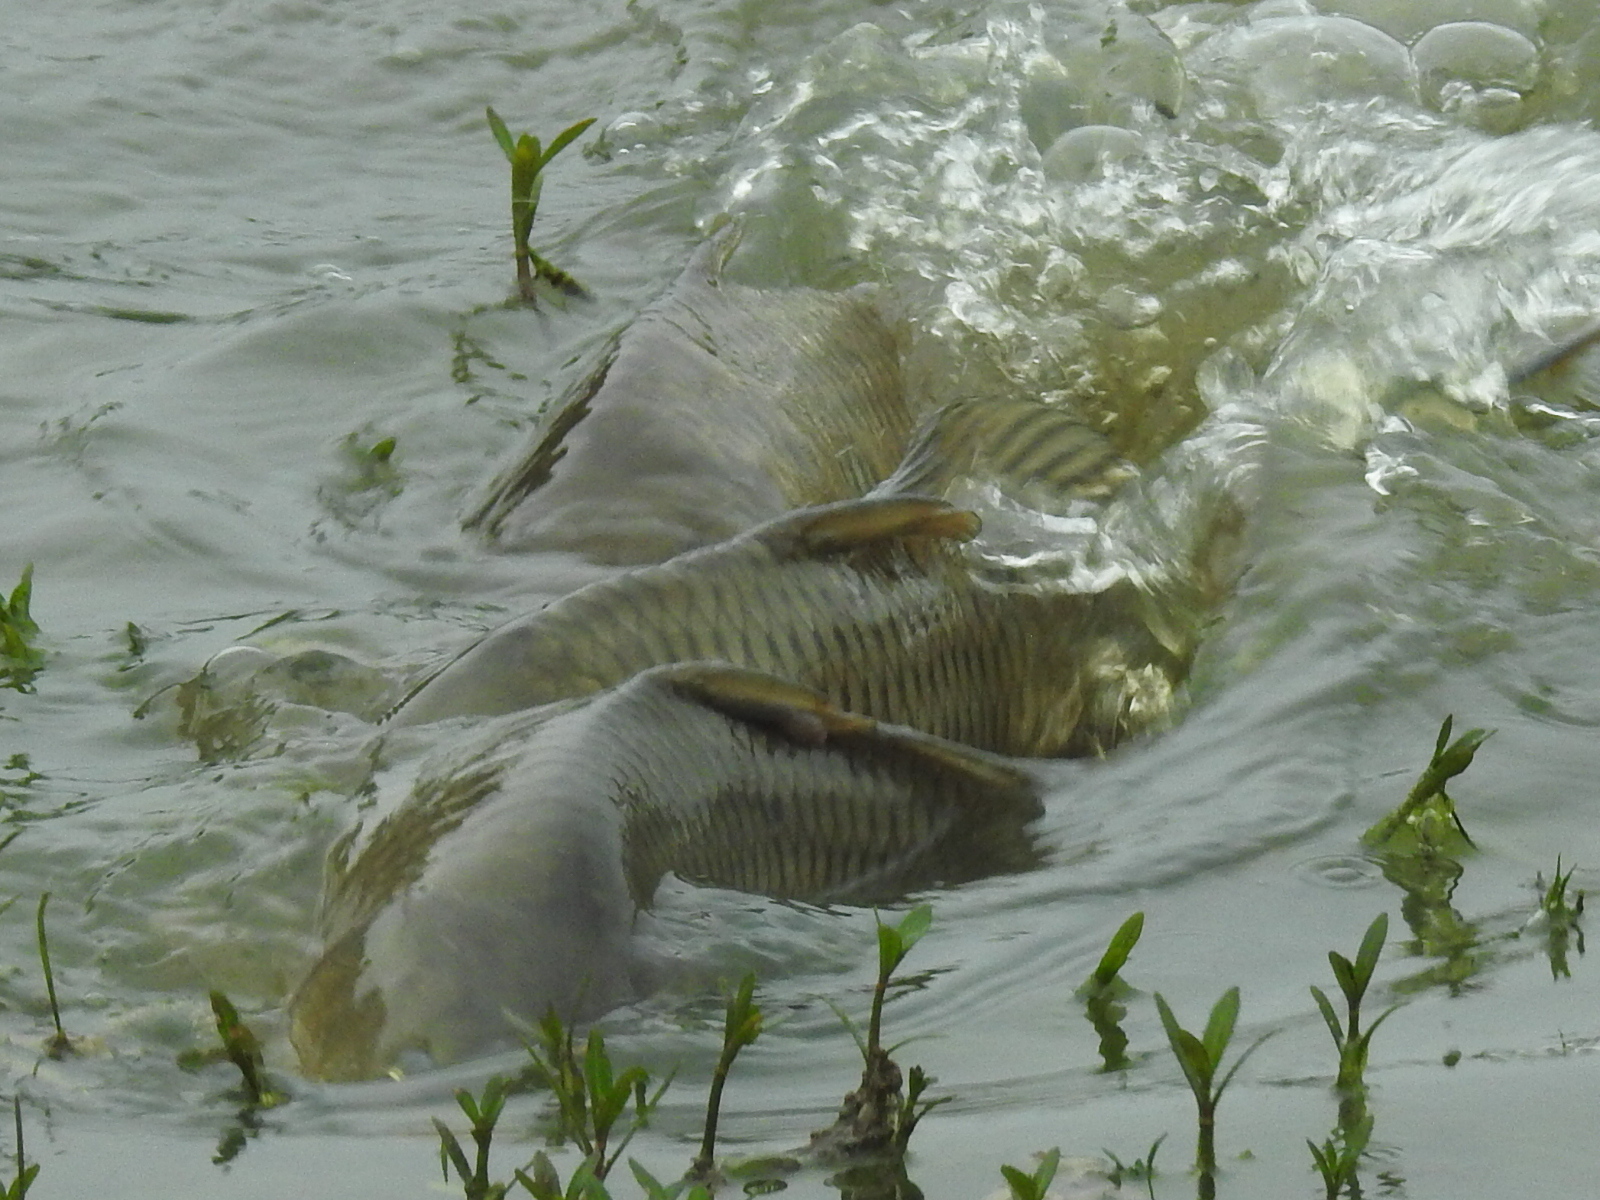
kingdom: Animalia
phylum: Chordata
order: Cypriniformes
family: Cyprinidae
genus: Cyprinus
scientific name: Cyprinus carpio
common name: Common carp
